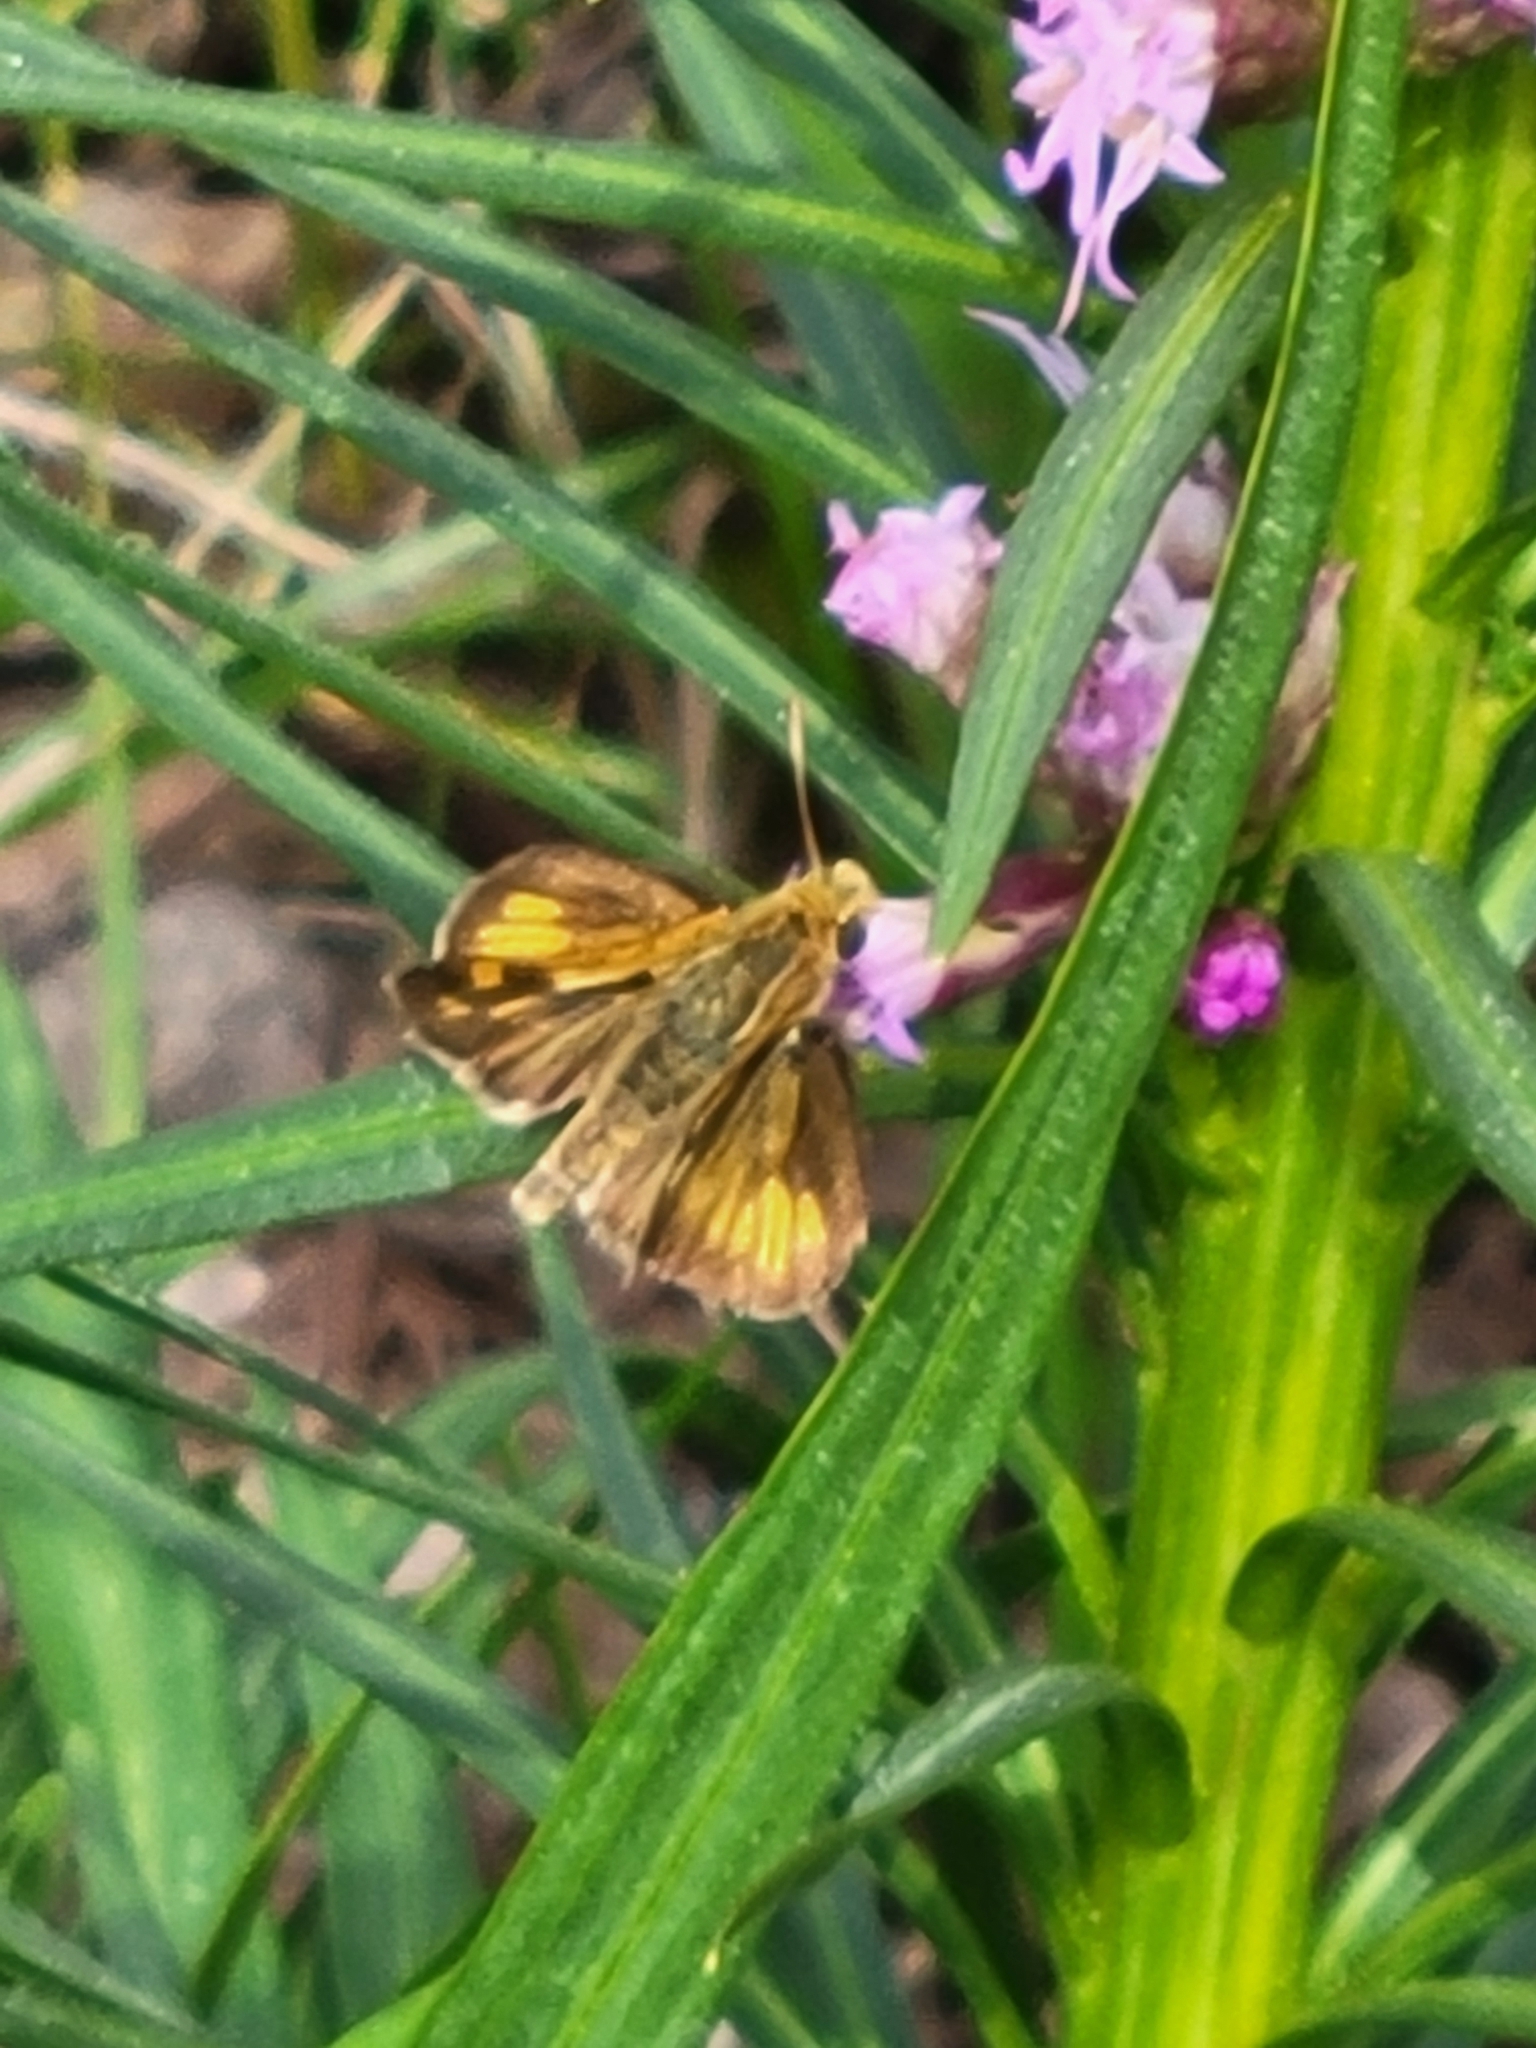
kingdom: Animalia
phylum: Arthropoda
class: Insecta
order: Lepidoptera
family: Hesperiidae
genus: Polites
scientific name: Polites coras
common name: Peck's skipper
